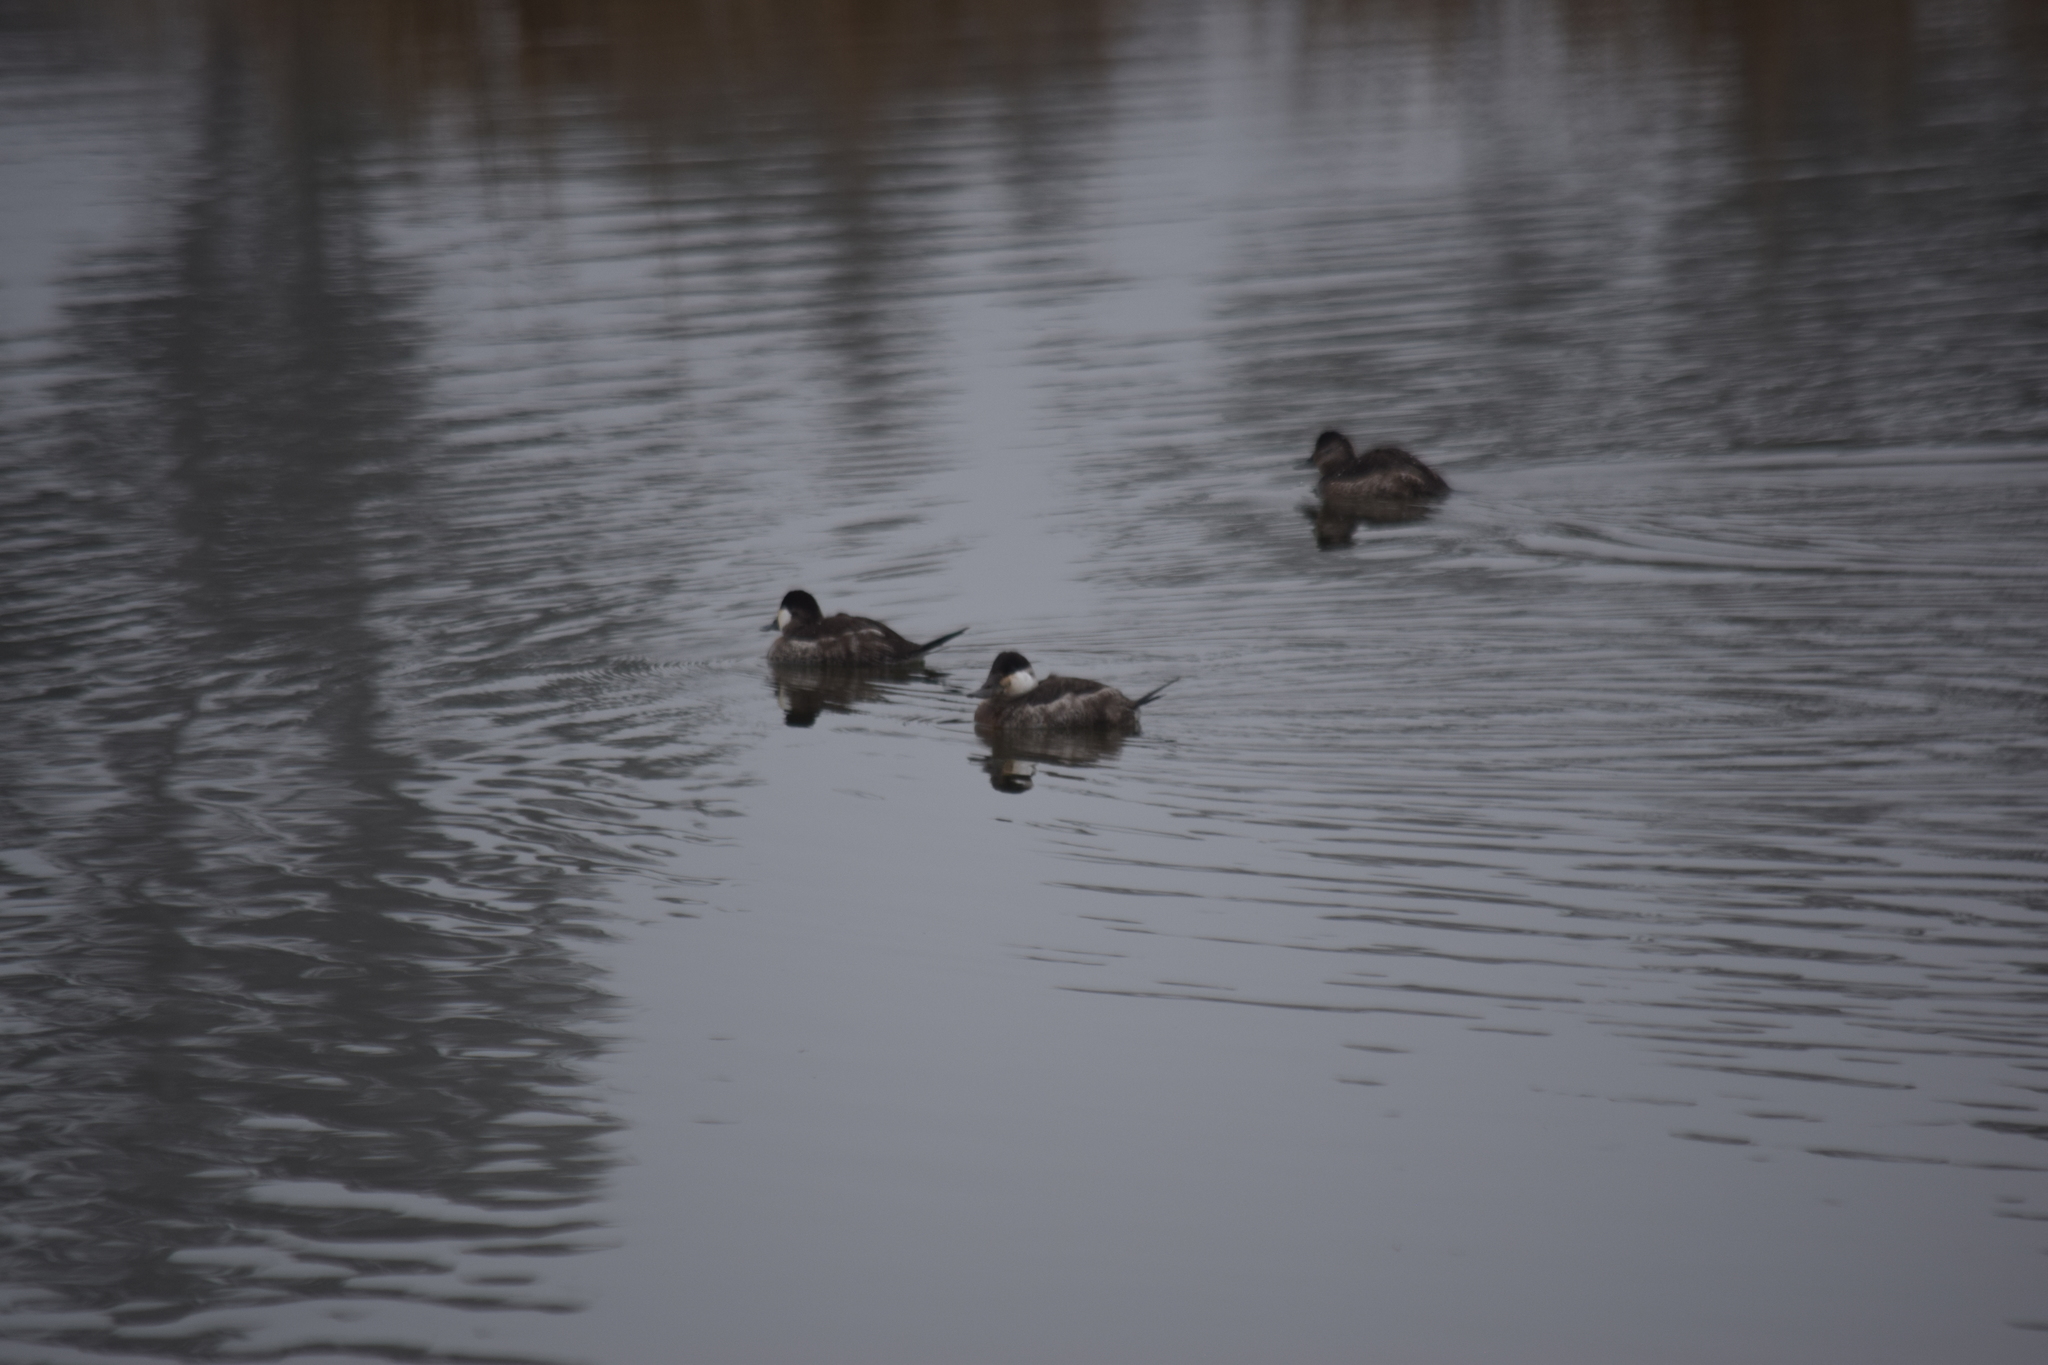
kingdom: Animalia
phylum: Chordata
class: Aves
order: Anseriformes
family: Anatidae
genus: Oxyura
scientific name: Oxyura jamaicensis
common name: Ruddy duck
